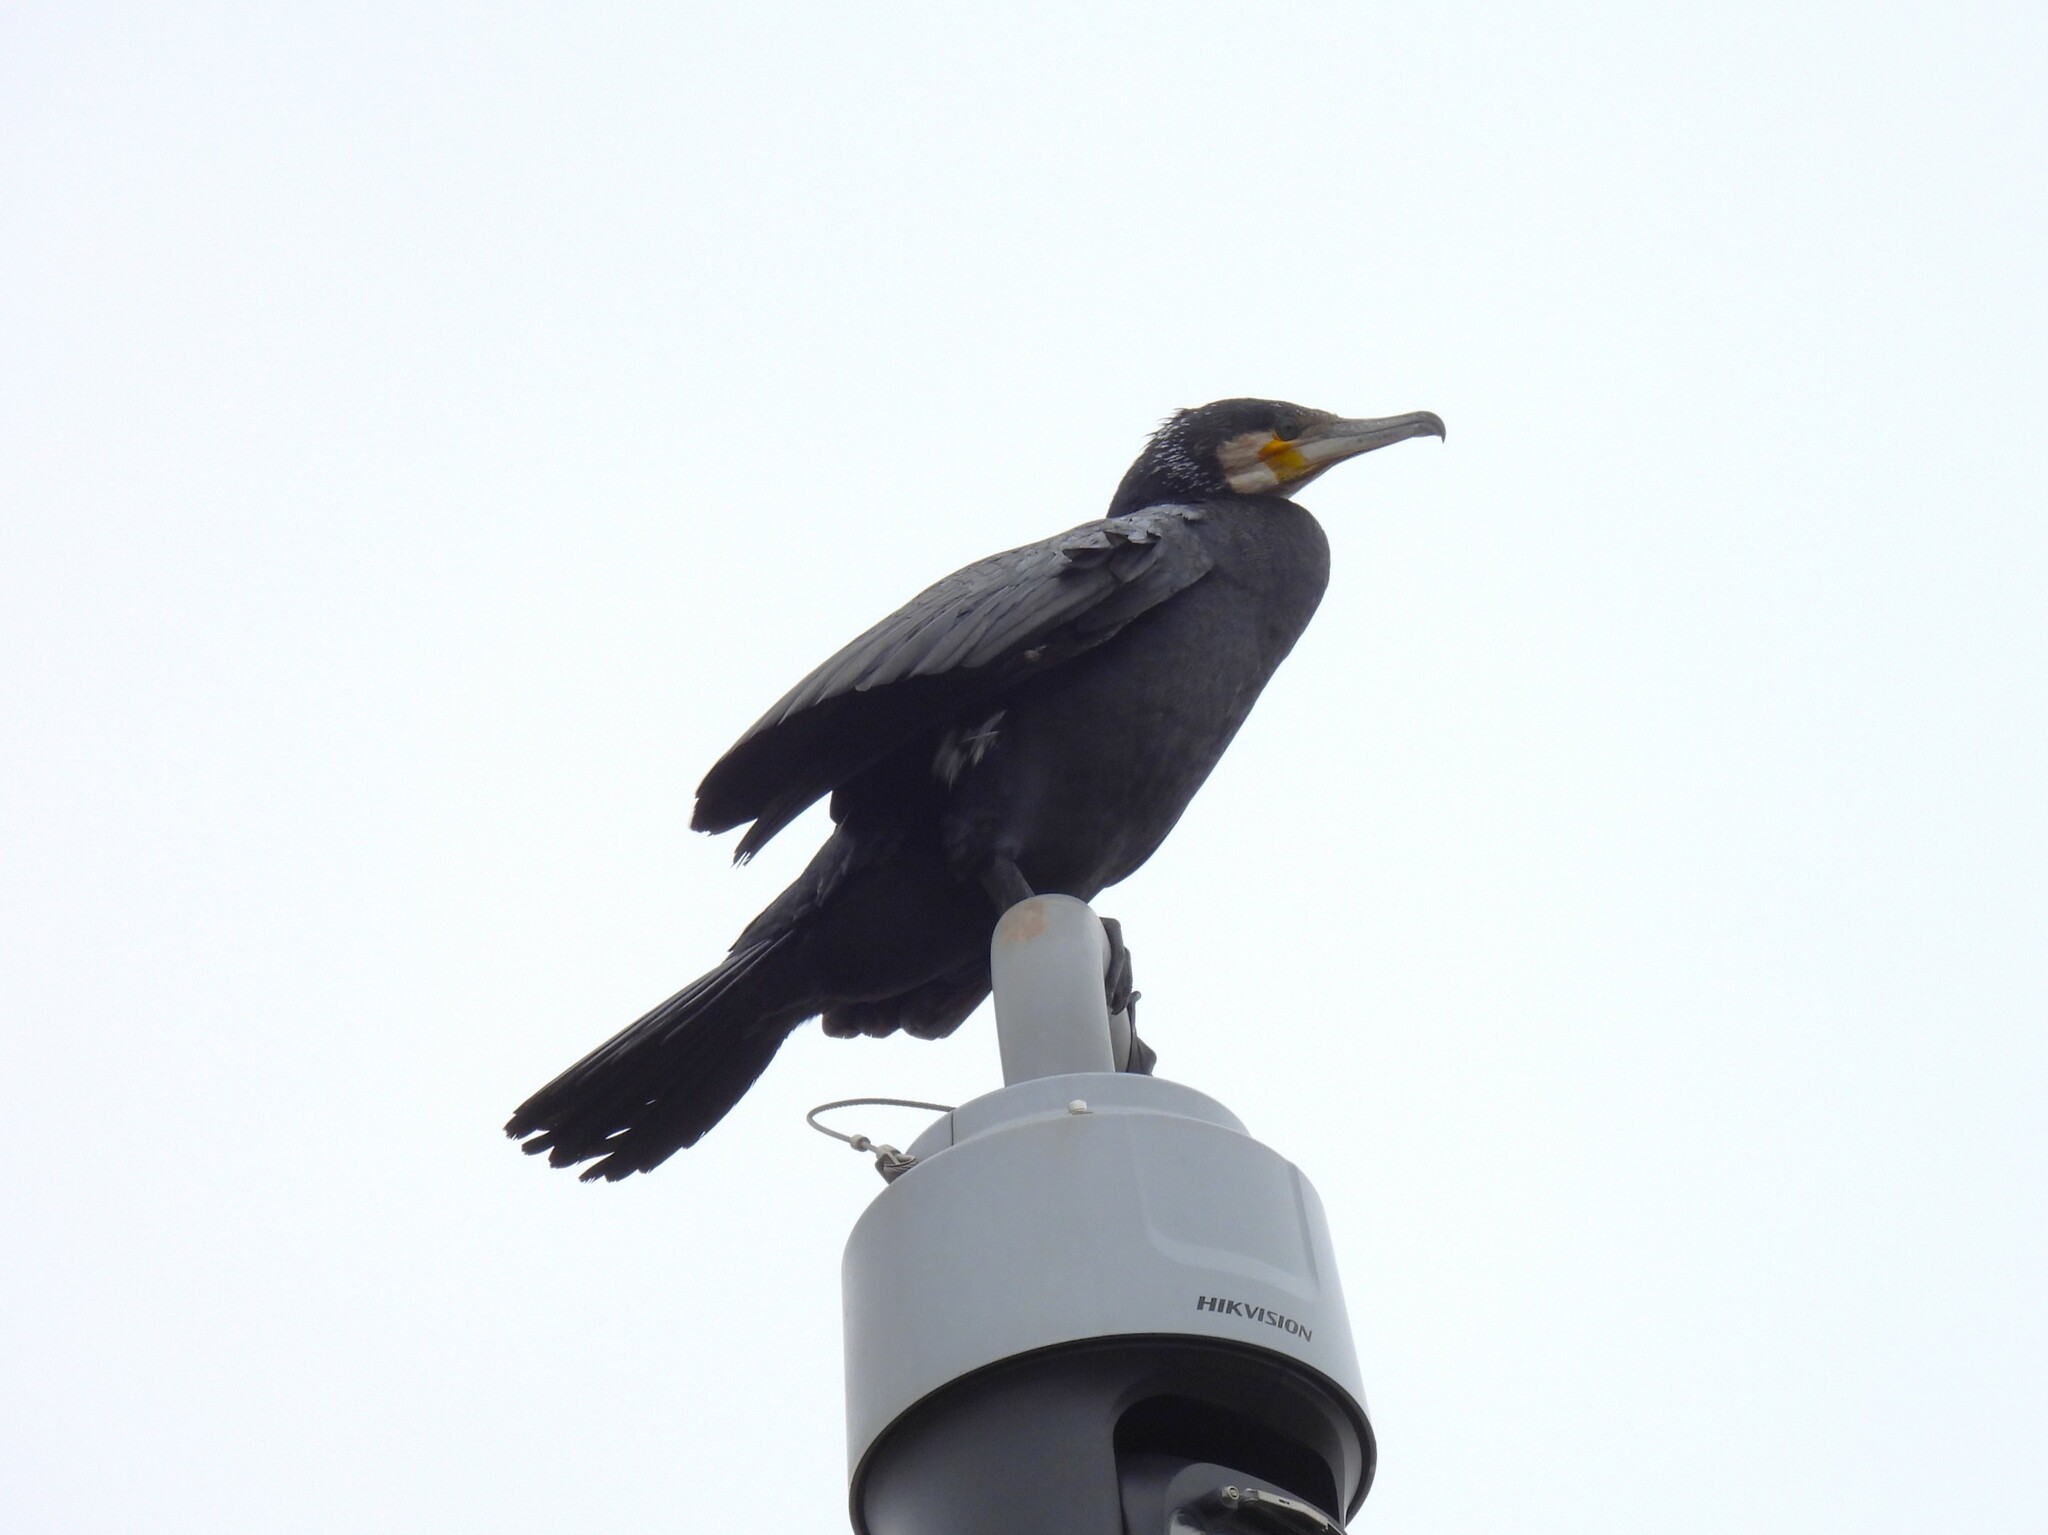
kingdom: Animalia
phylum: Chordata
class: Aves
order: Suliformes
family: Phalacrocoracidae
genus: Phalacrocorax
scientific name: Phalacrocorax carbo
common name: Great cormorant
